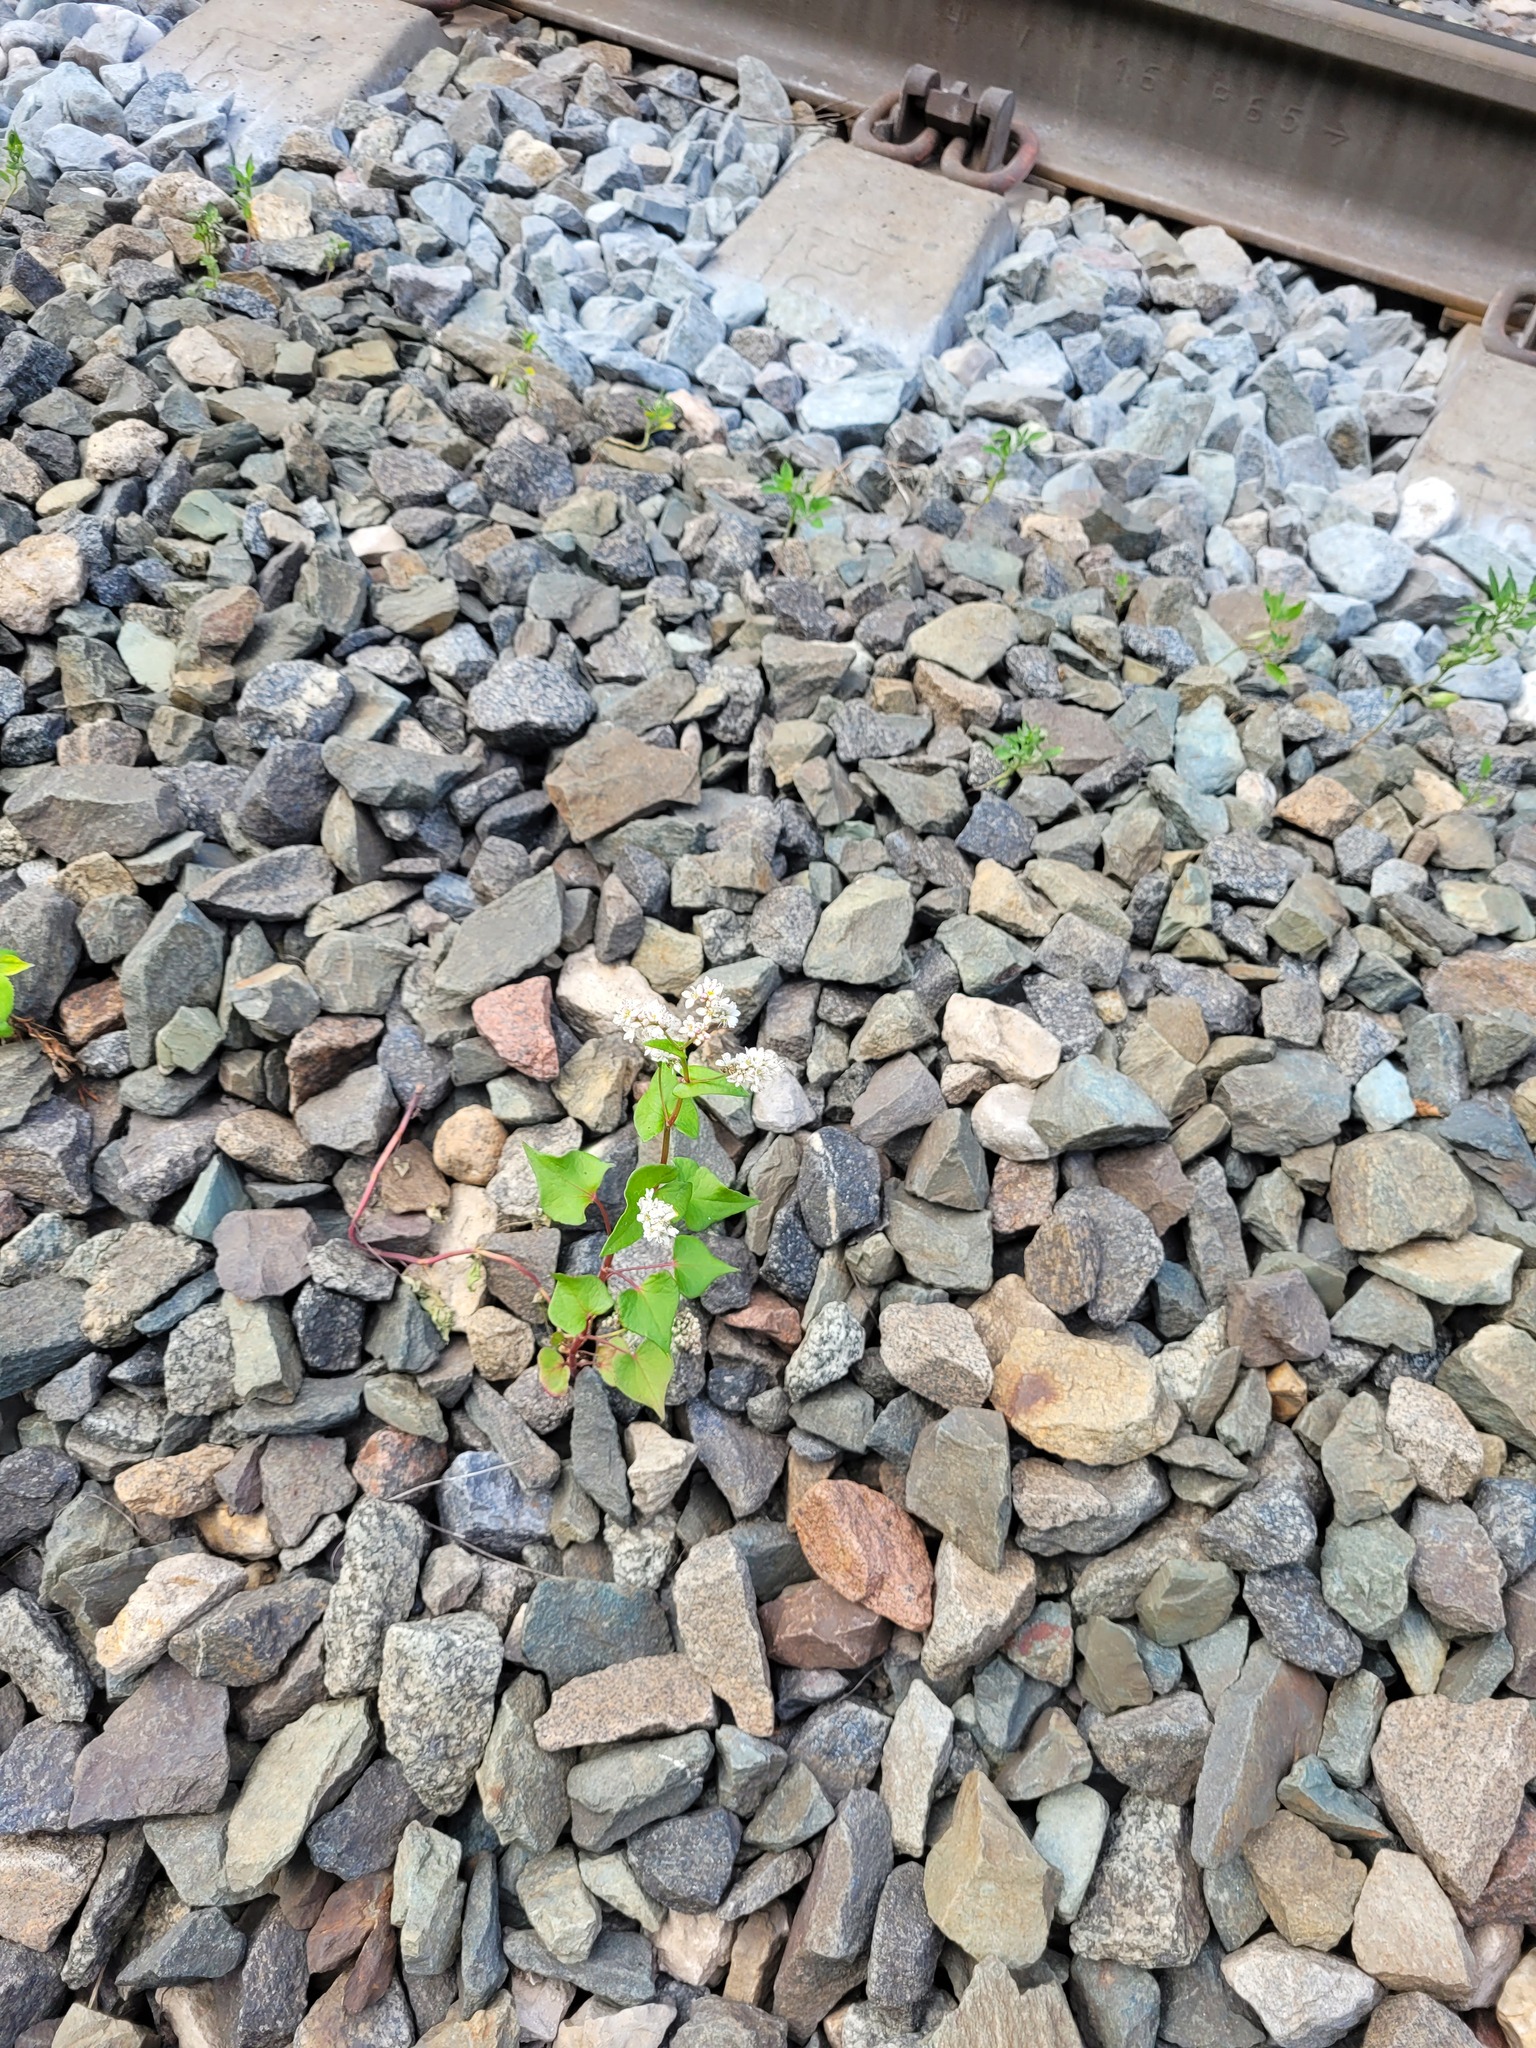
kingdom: Plantae
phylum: Tracheophyta
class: Magnoliopsida
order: Caryophyllales
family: Polygonaceae
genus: Fagopyrum
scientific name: Fagopyrum esculentum
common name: Buckwheat
